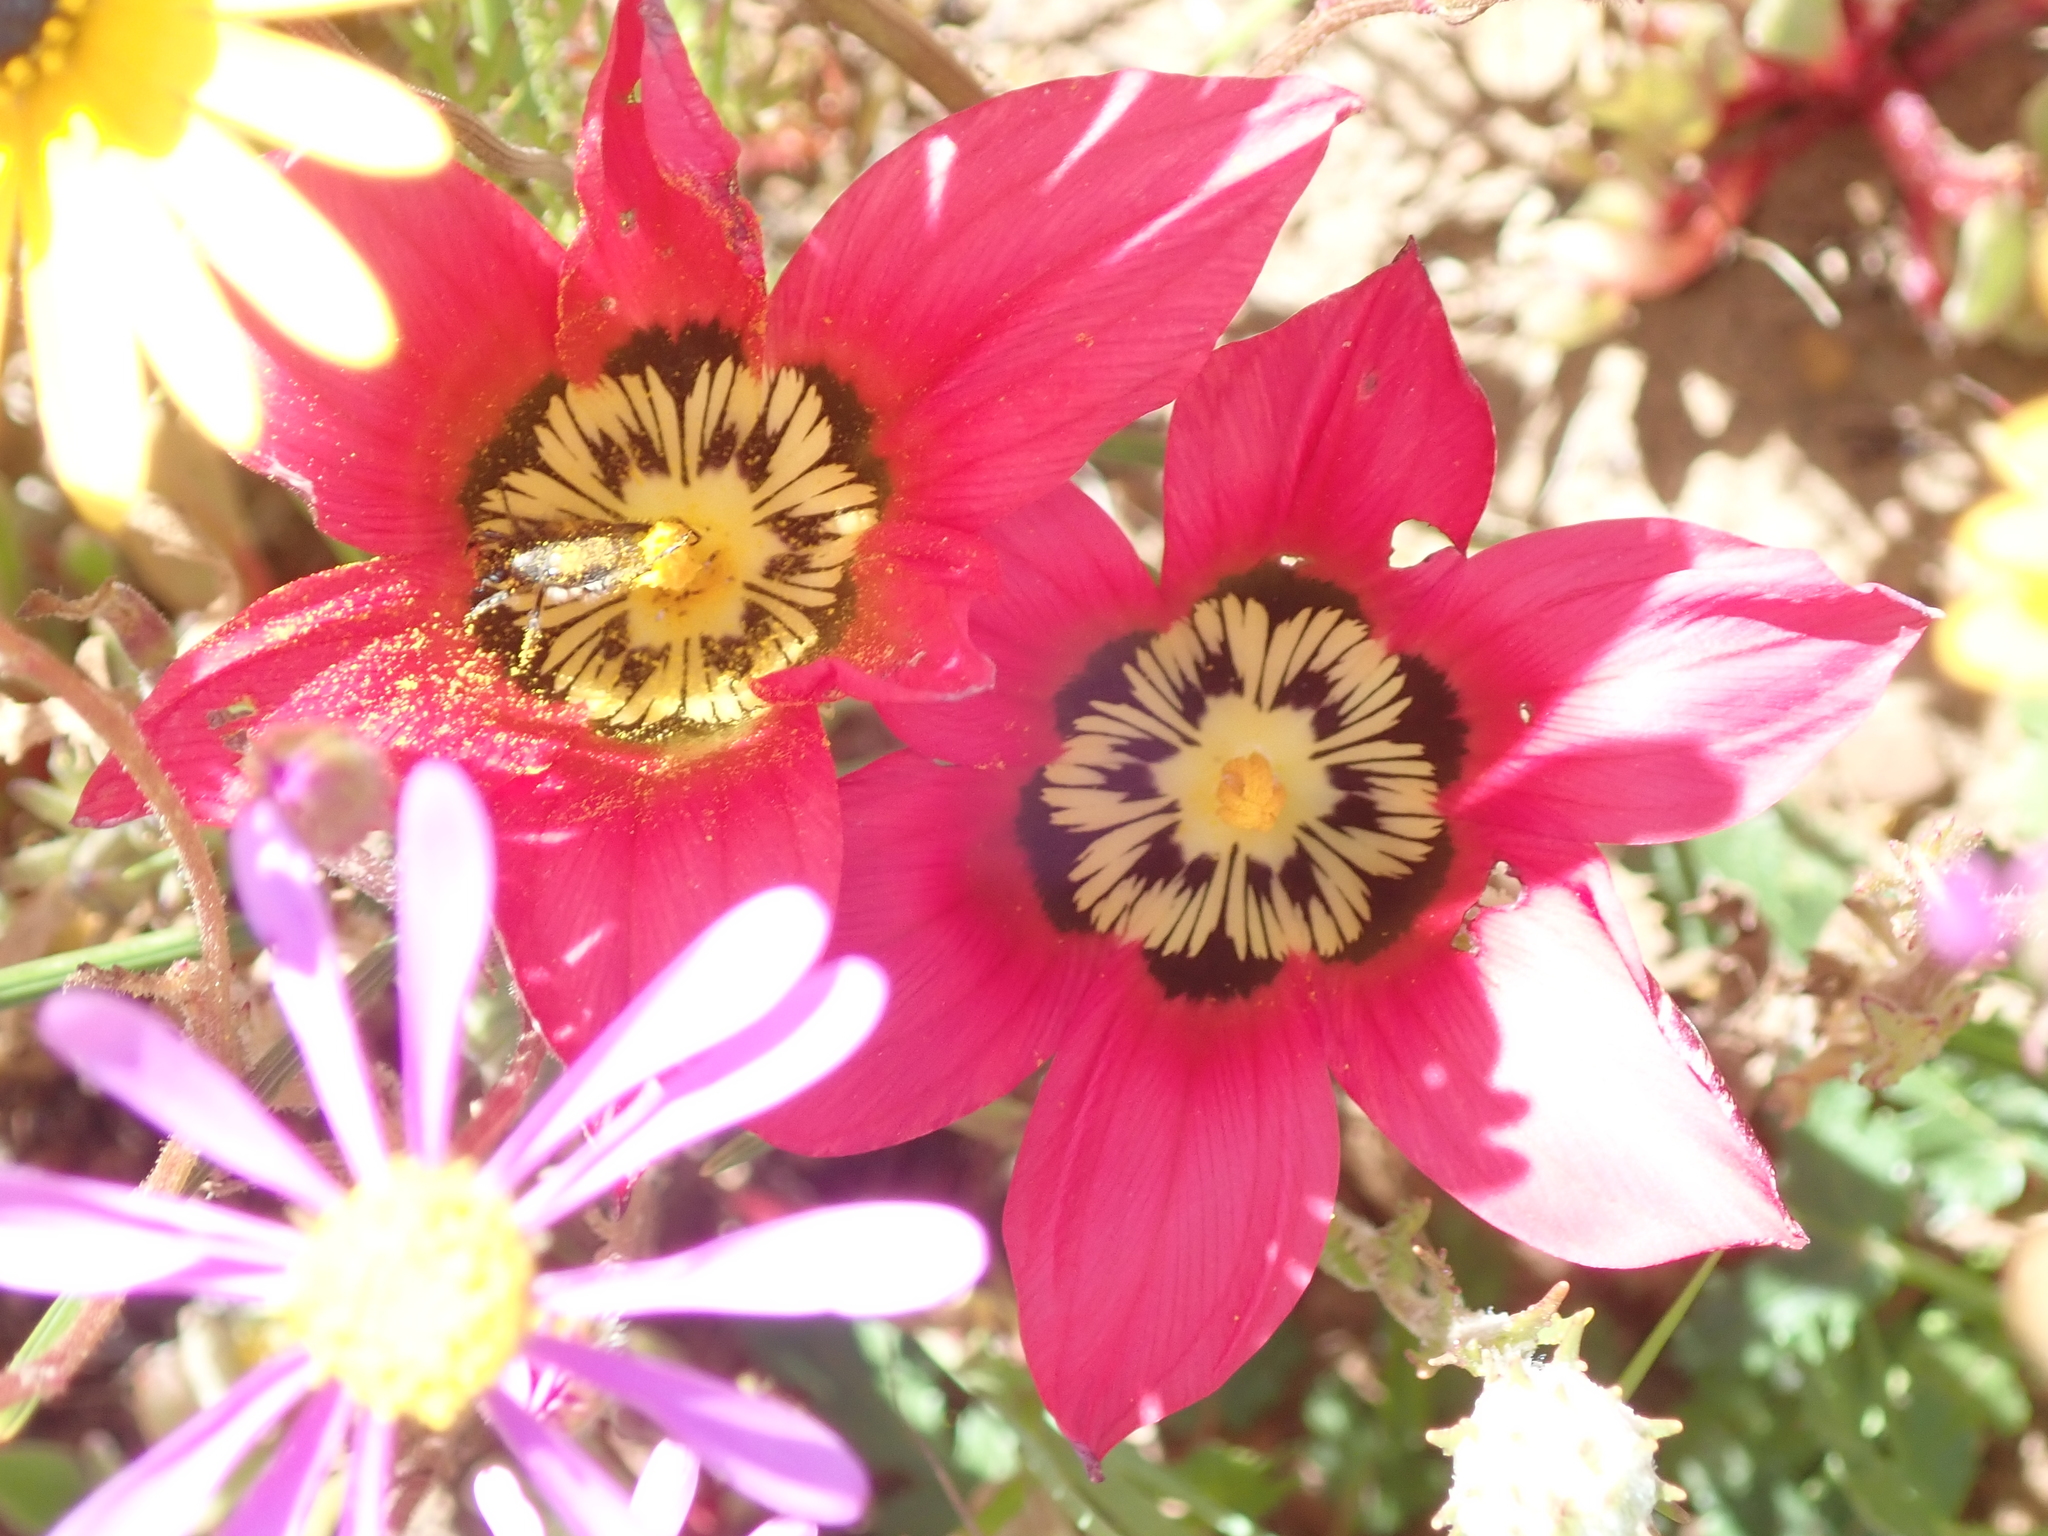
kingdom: Plantae
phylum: Tracheophyta
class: Liliopsida
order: Asparagales
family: Iridaceae
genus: Romulea
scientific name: Romulea pudica
